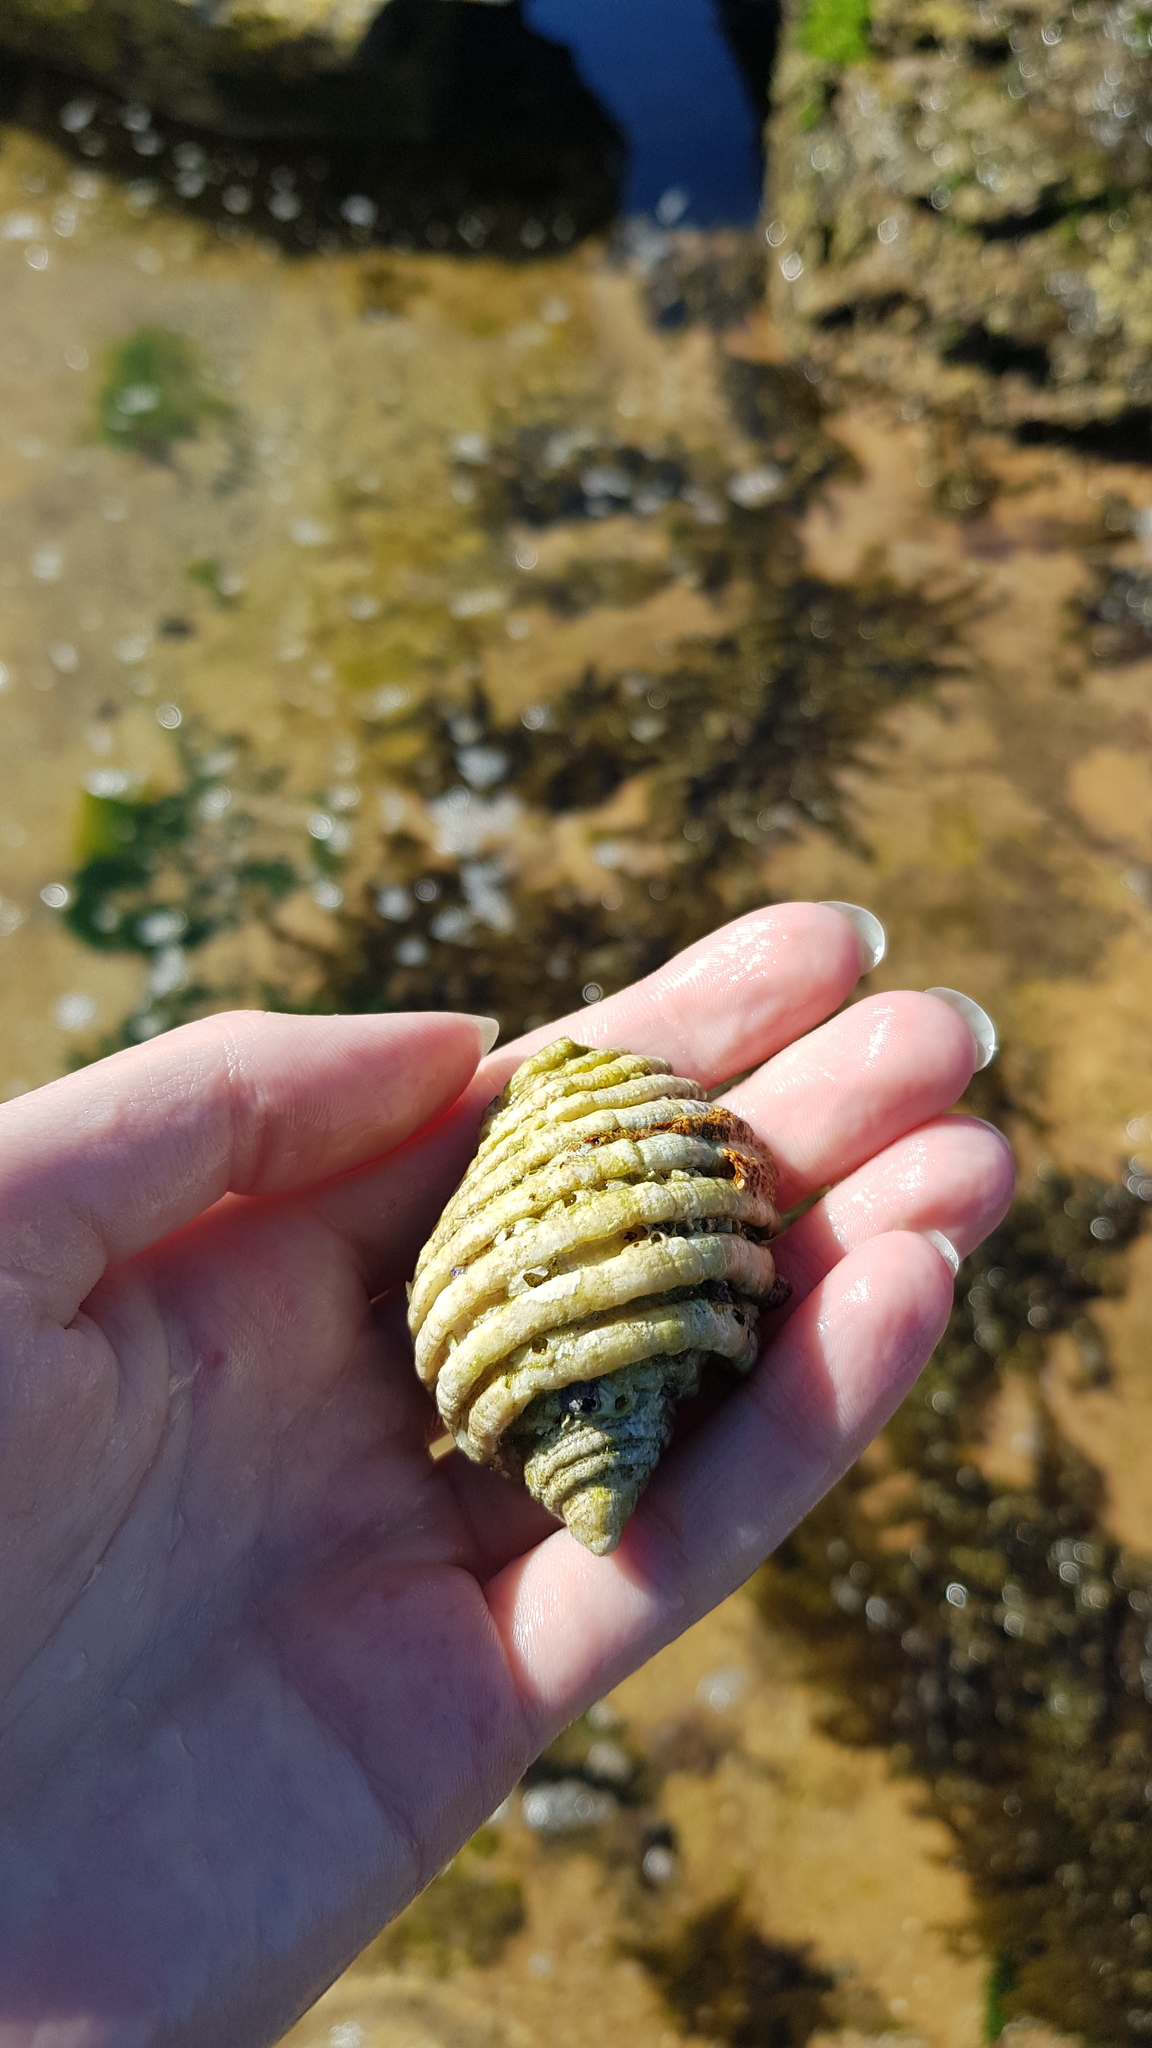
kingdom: Animalia
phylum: Mollusca
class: Gastropoda
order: Neogastropoda
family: Muricidae
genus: Dicathais
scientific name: Dicathais orbita
